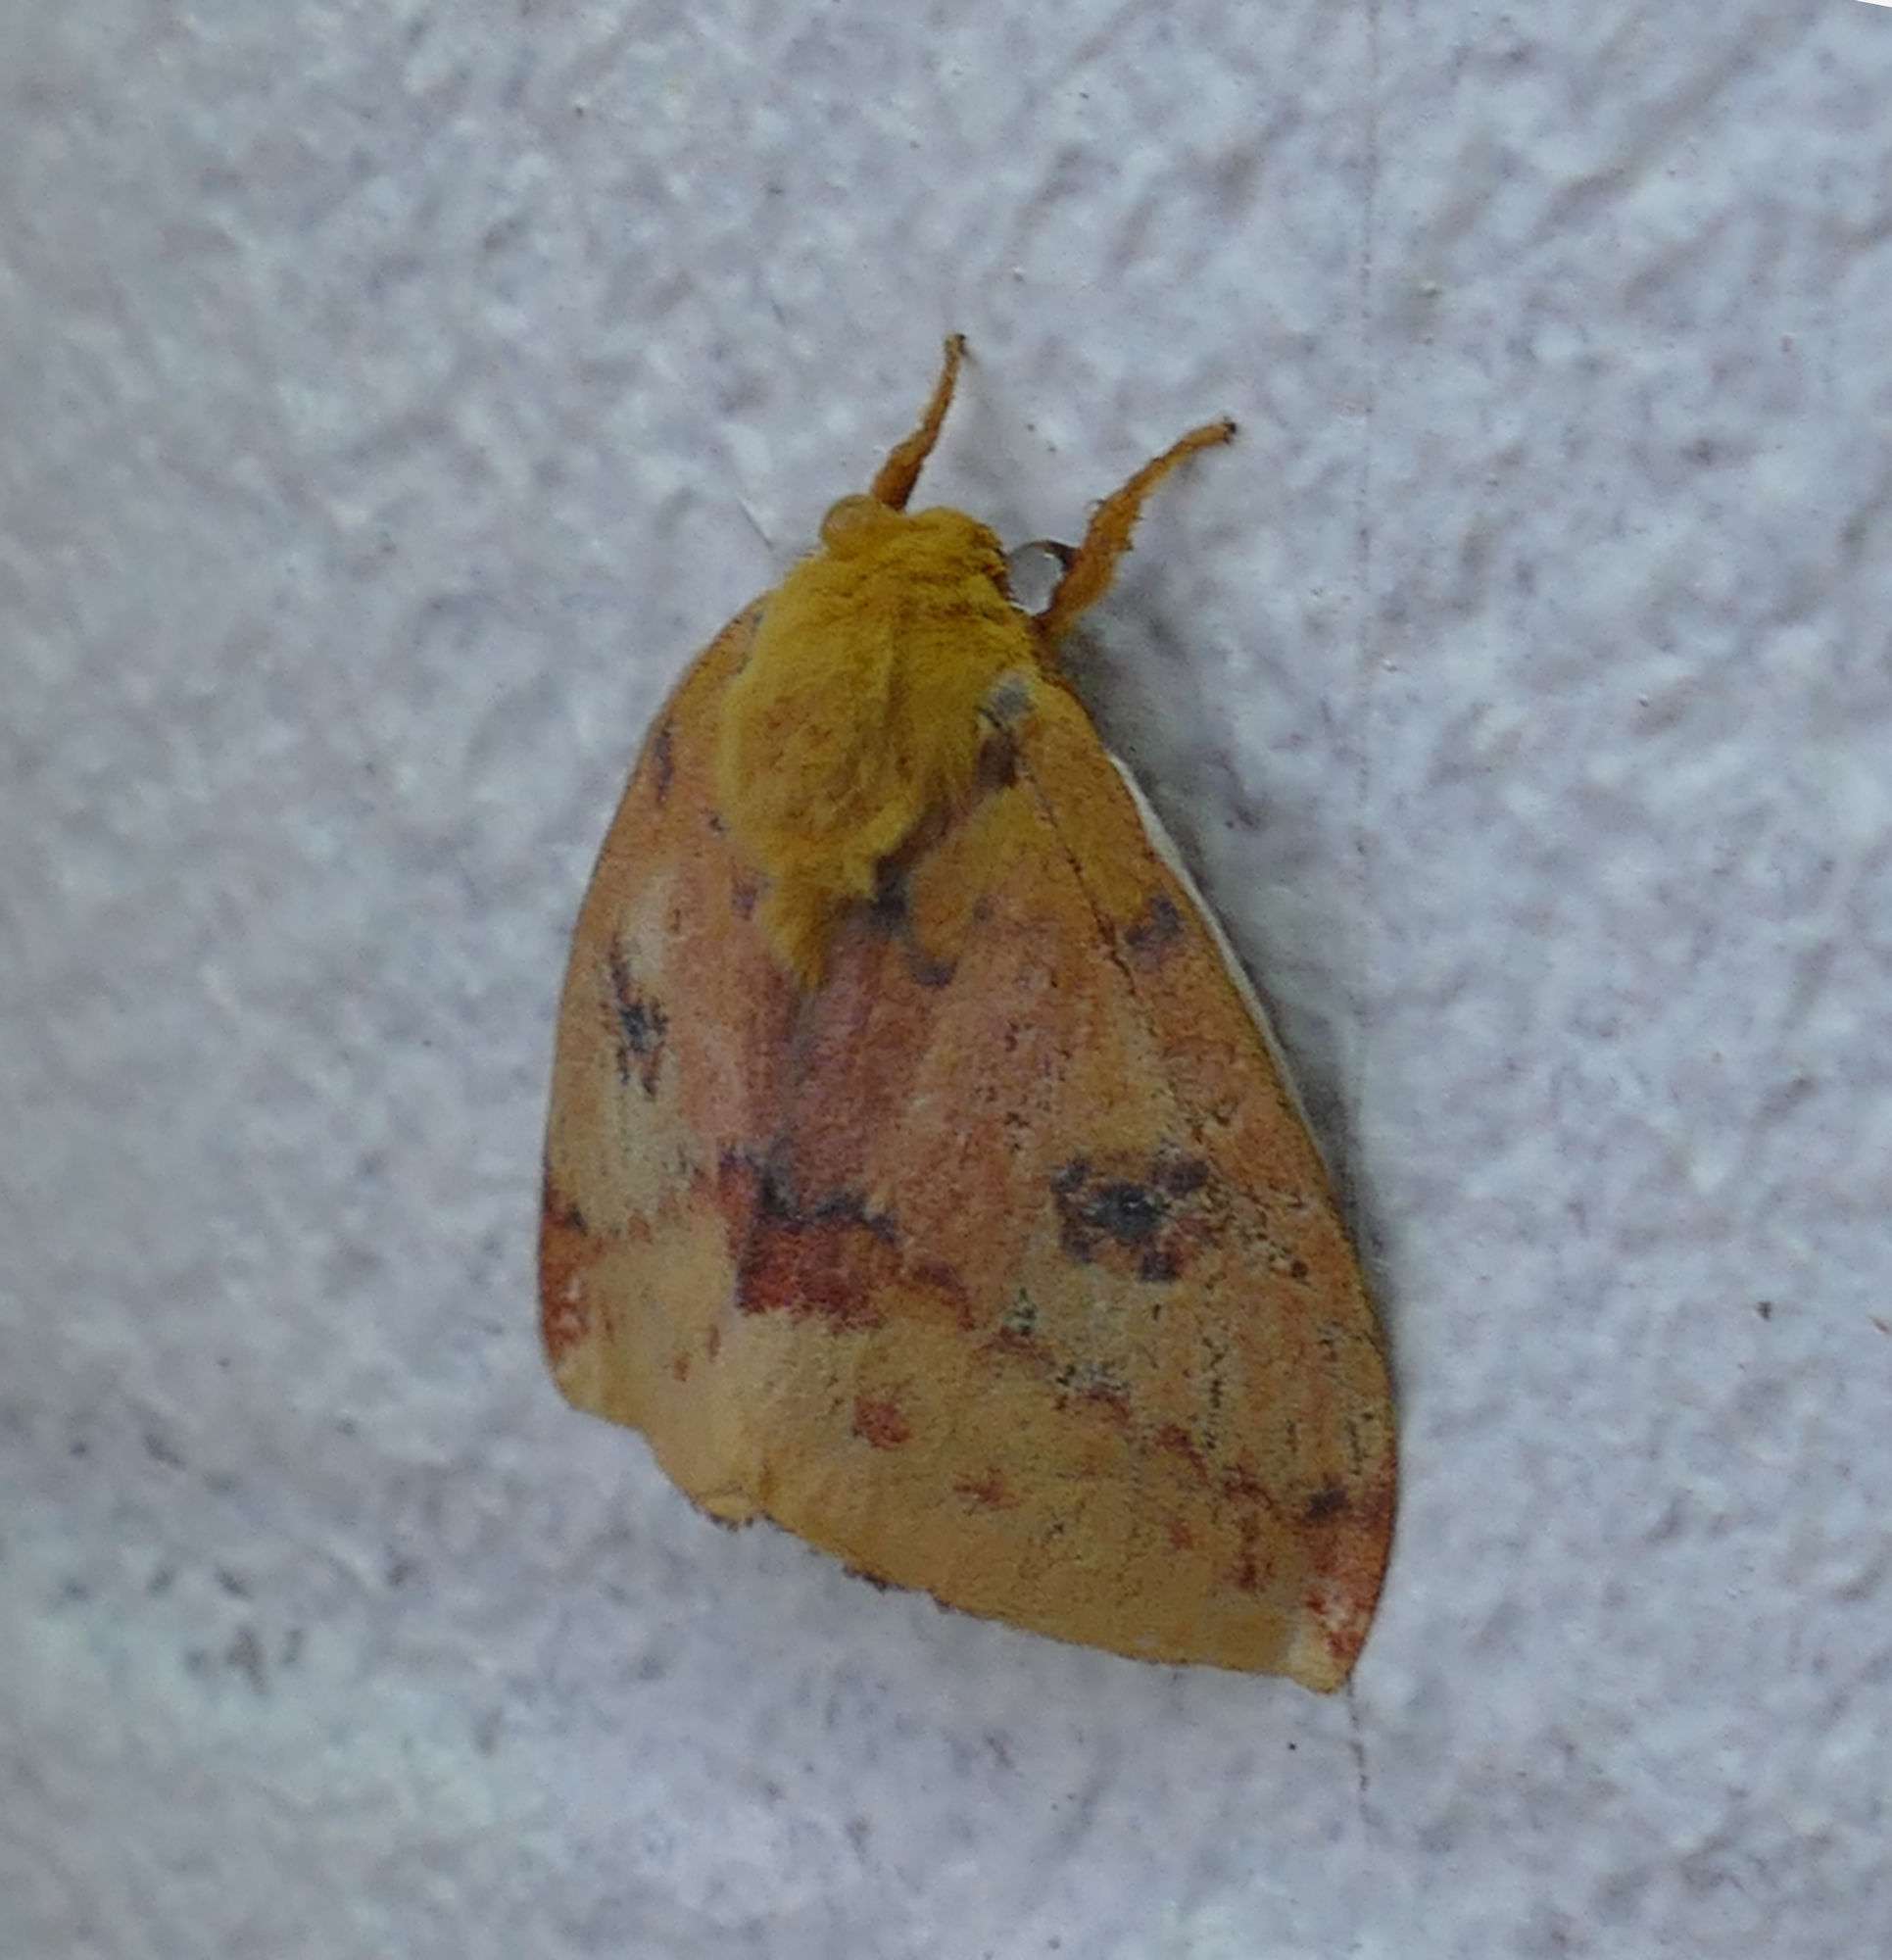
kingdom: Animalia
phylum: Arthropoda
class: Insecta
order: Lepidoptera
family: Saturniidae
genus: Automeris
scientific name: Automeris io
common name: Io moth
